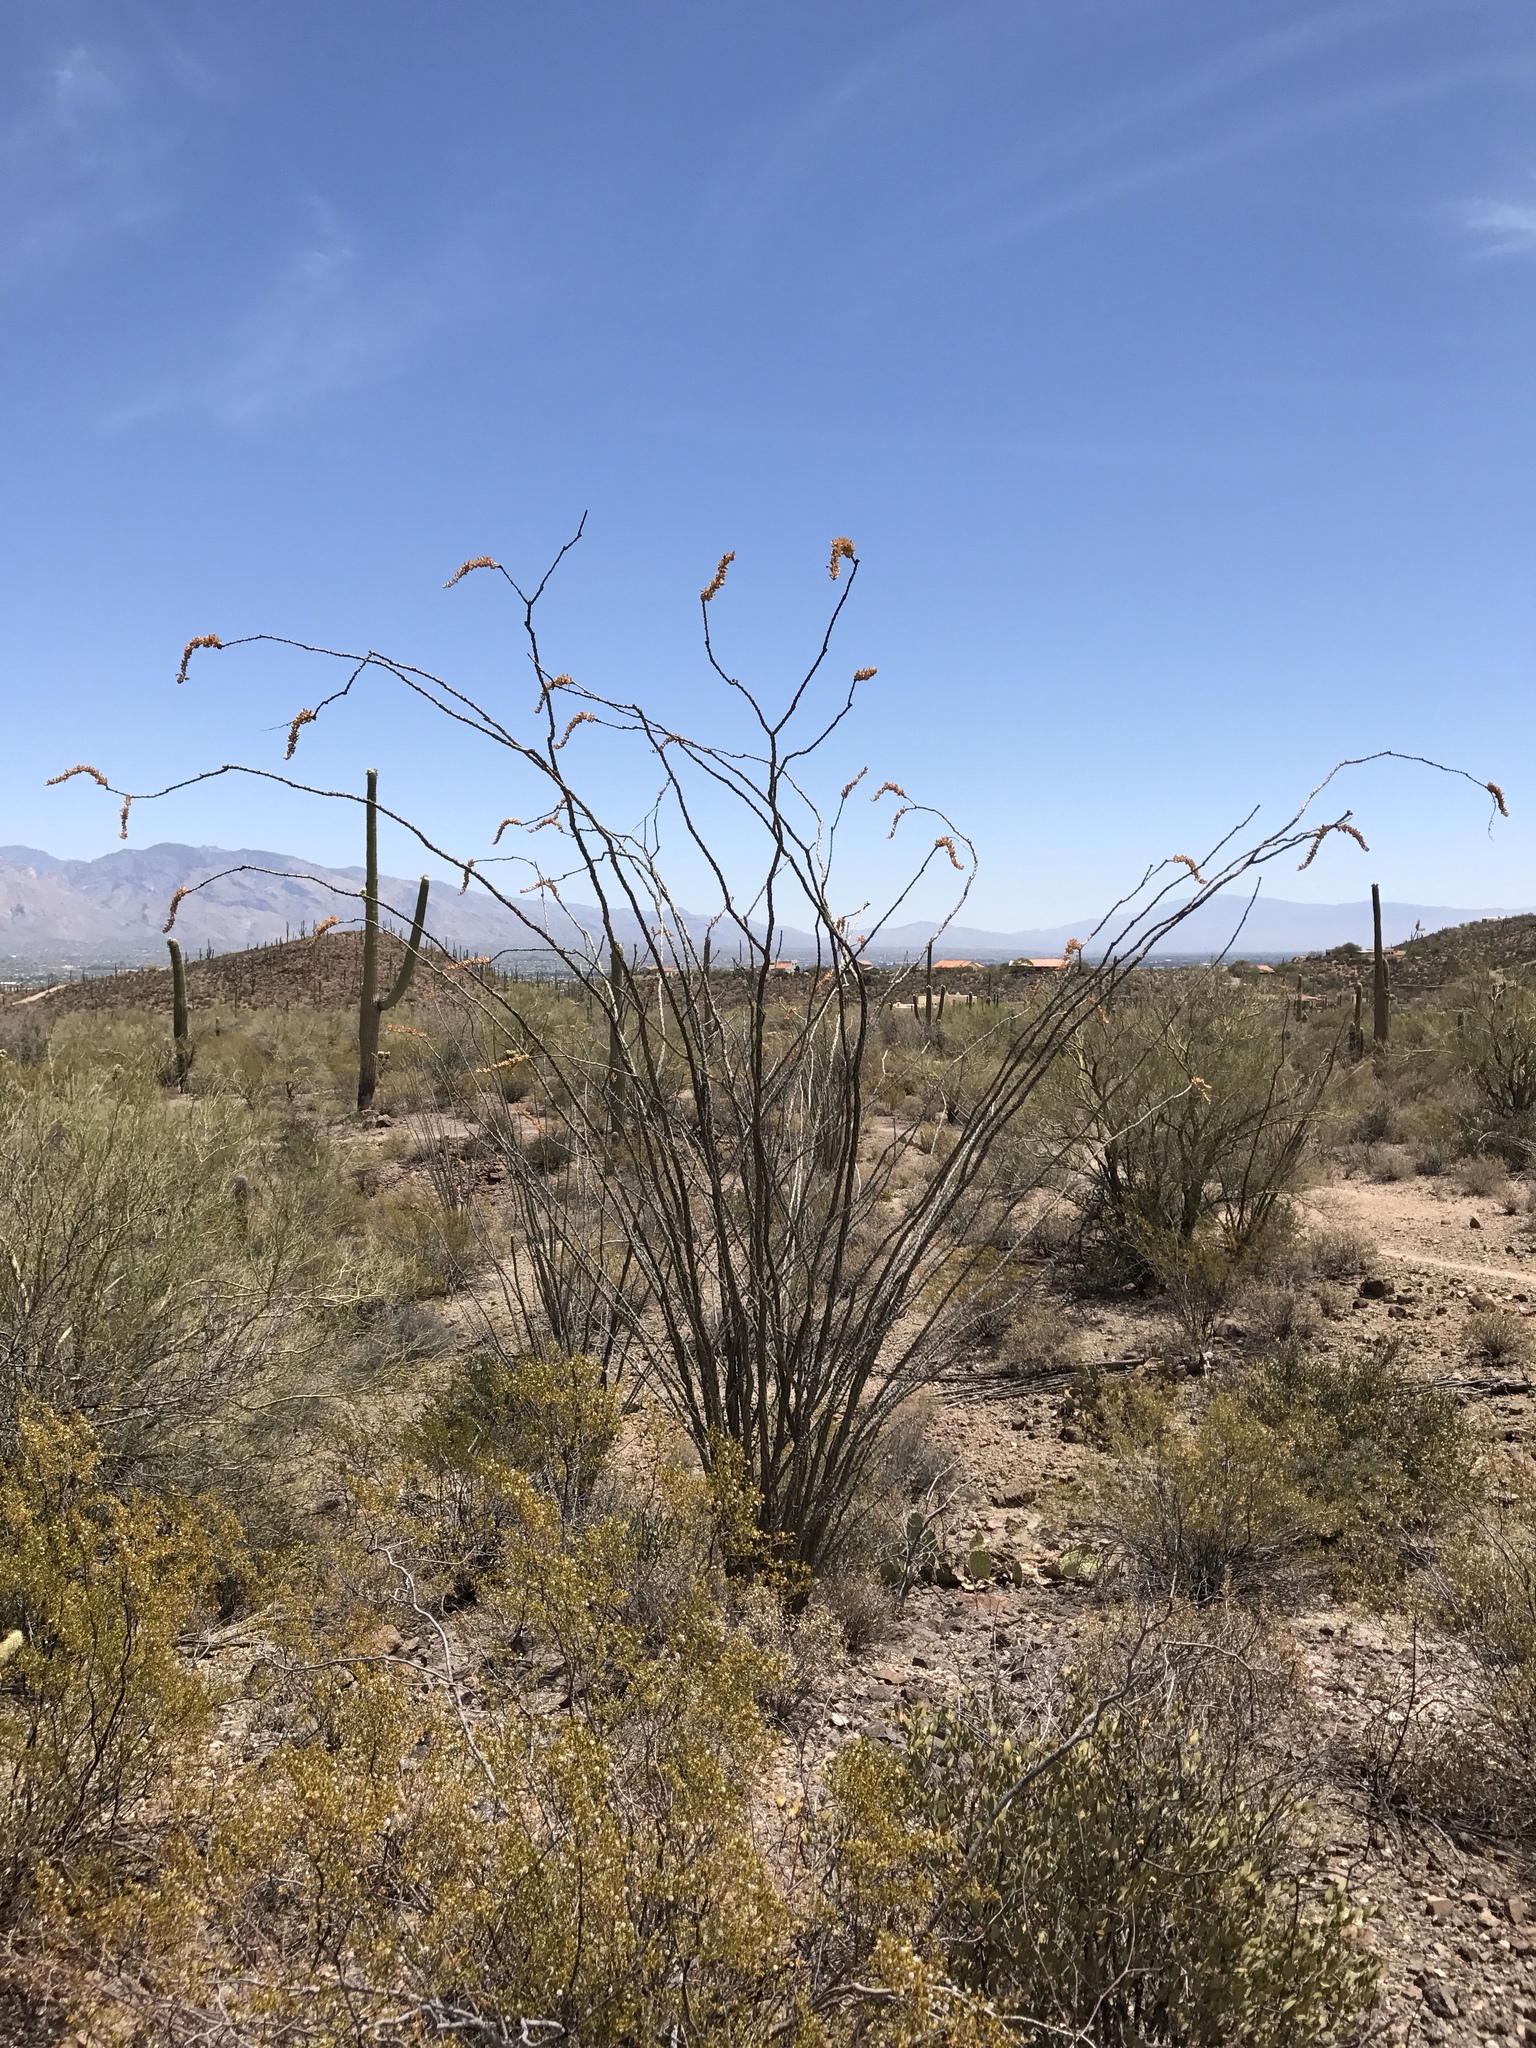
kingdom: Plantae
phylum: Tracheophyta
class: Magnoliopsida
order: Ericales
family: Fouquieriaceae
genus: Fouquieria
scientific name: Fouquieria splendens
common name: Vine-cactus
